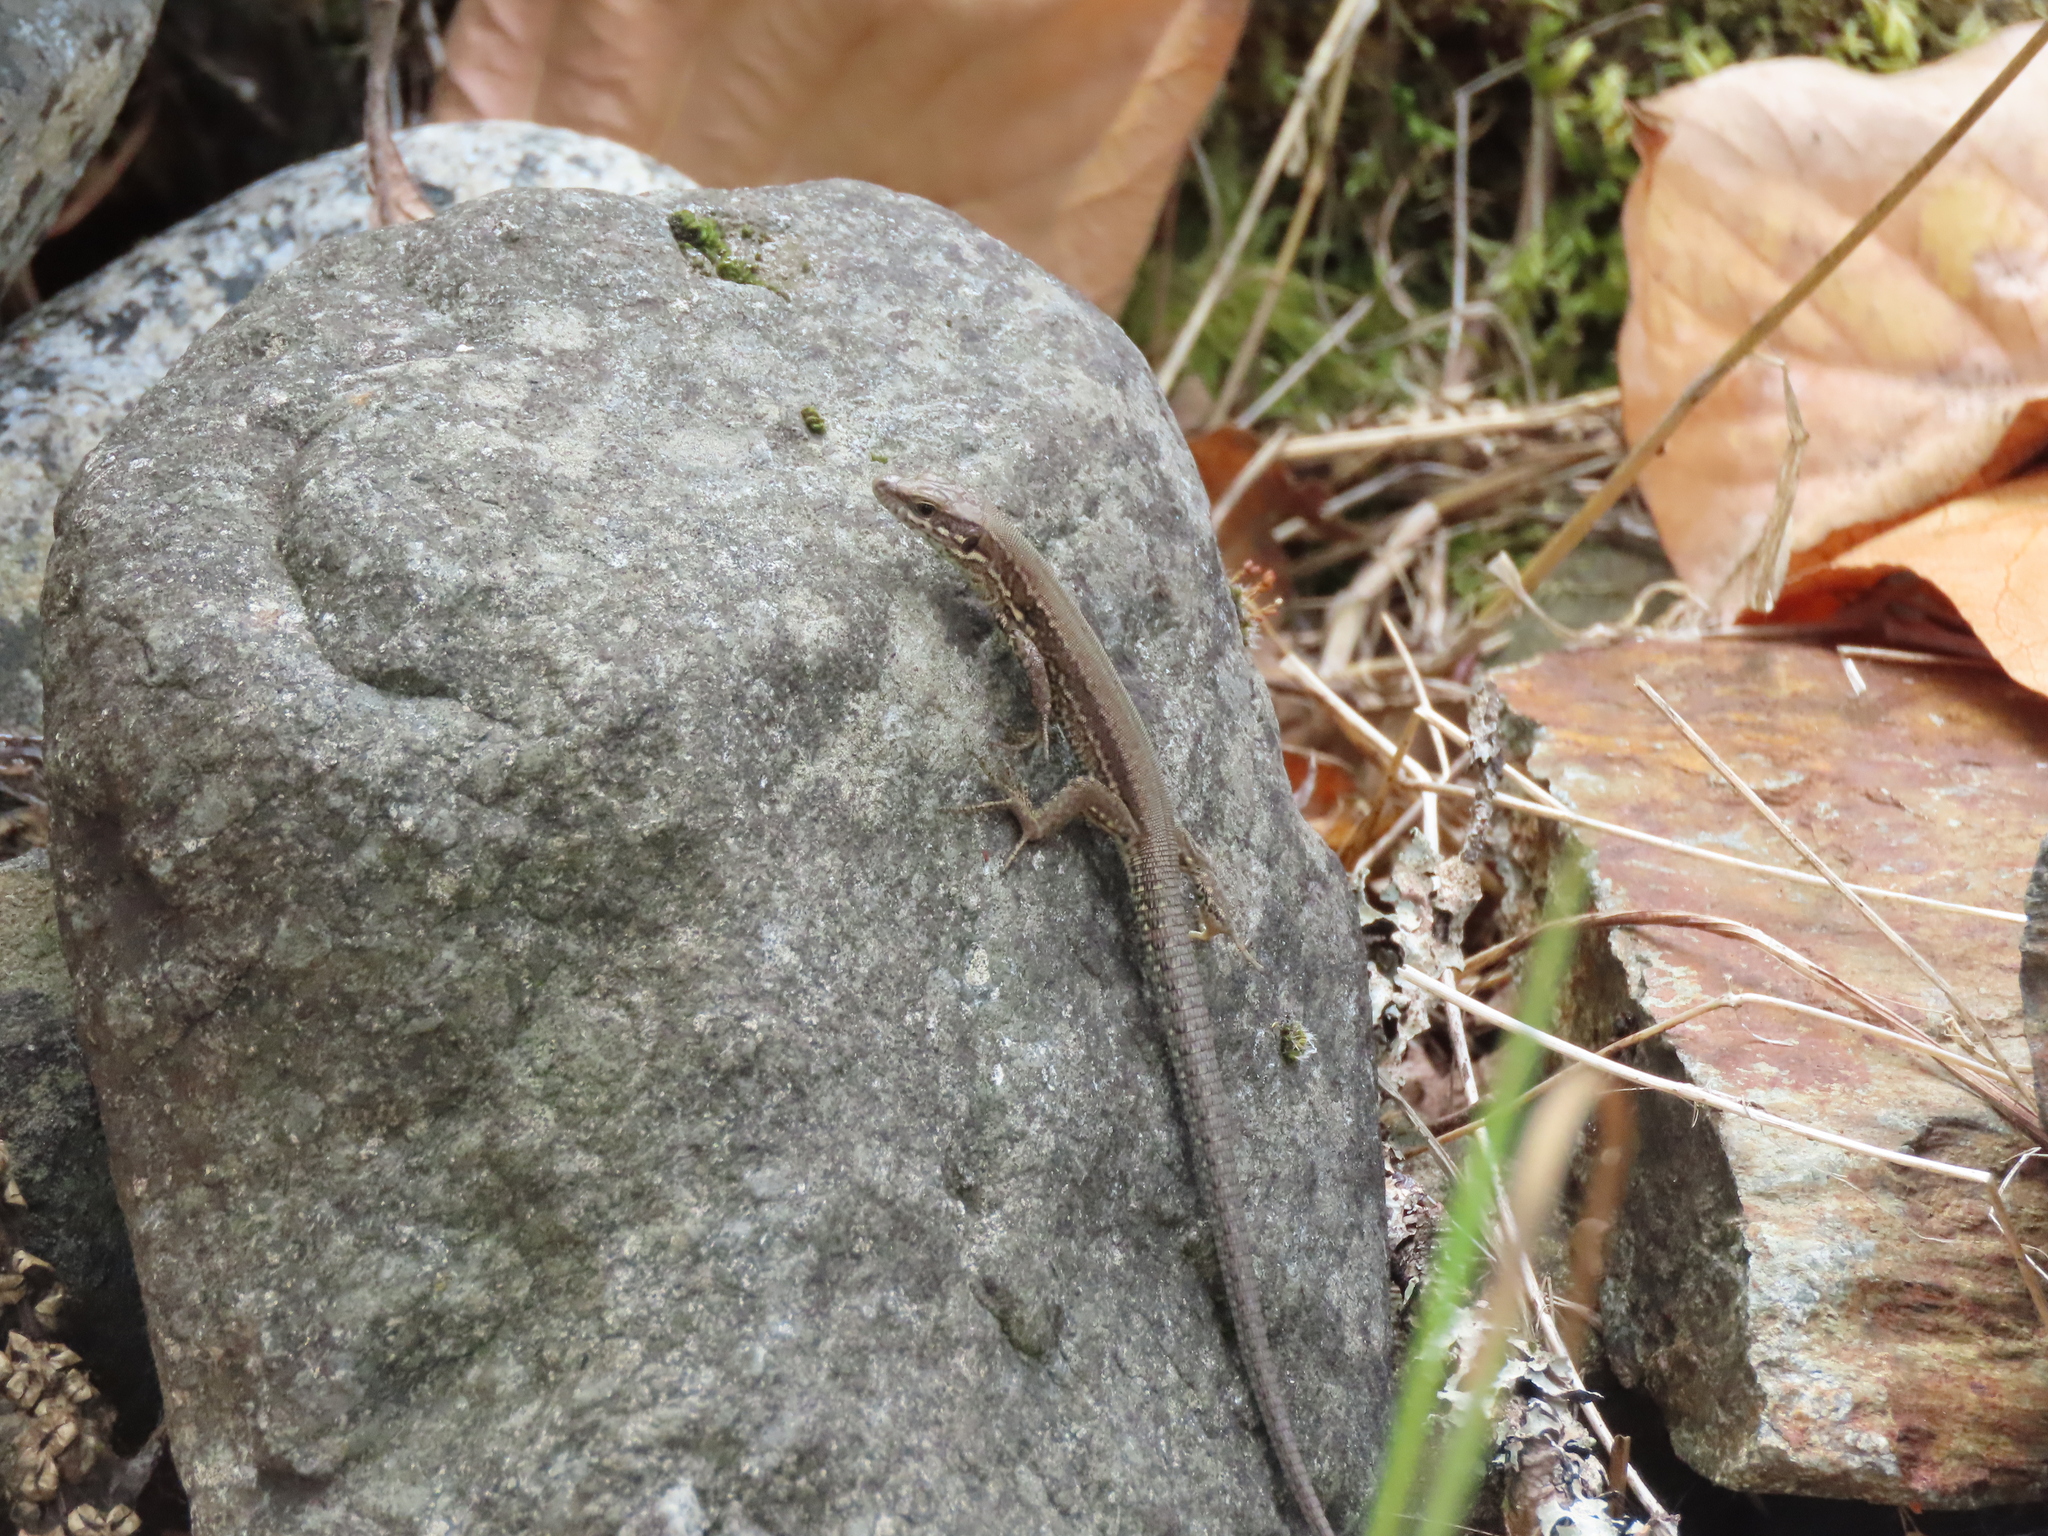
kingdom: Animalia
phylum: Chordata
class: Squamata
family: Lacertidae
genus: Podarcis
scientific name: Podarcis muralis
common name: Common wall lizard
